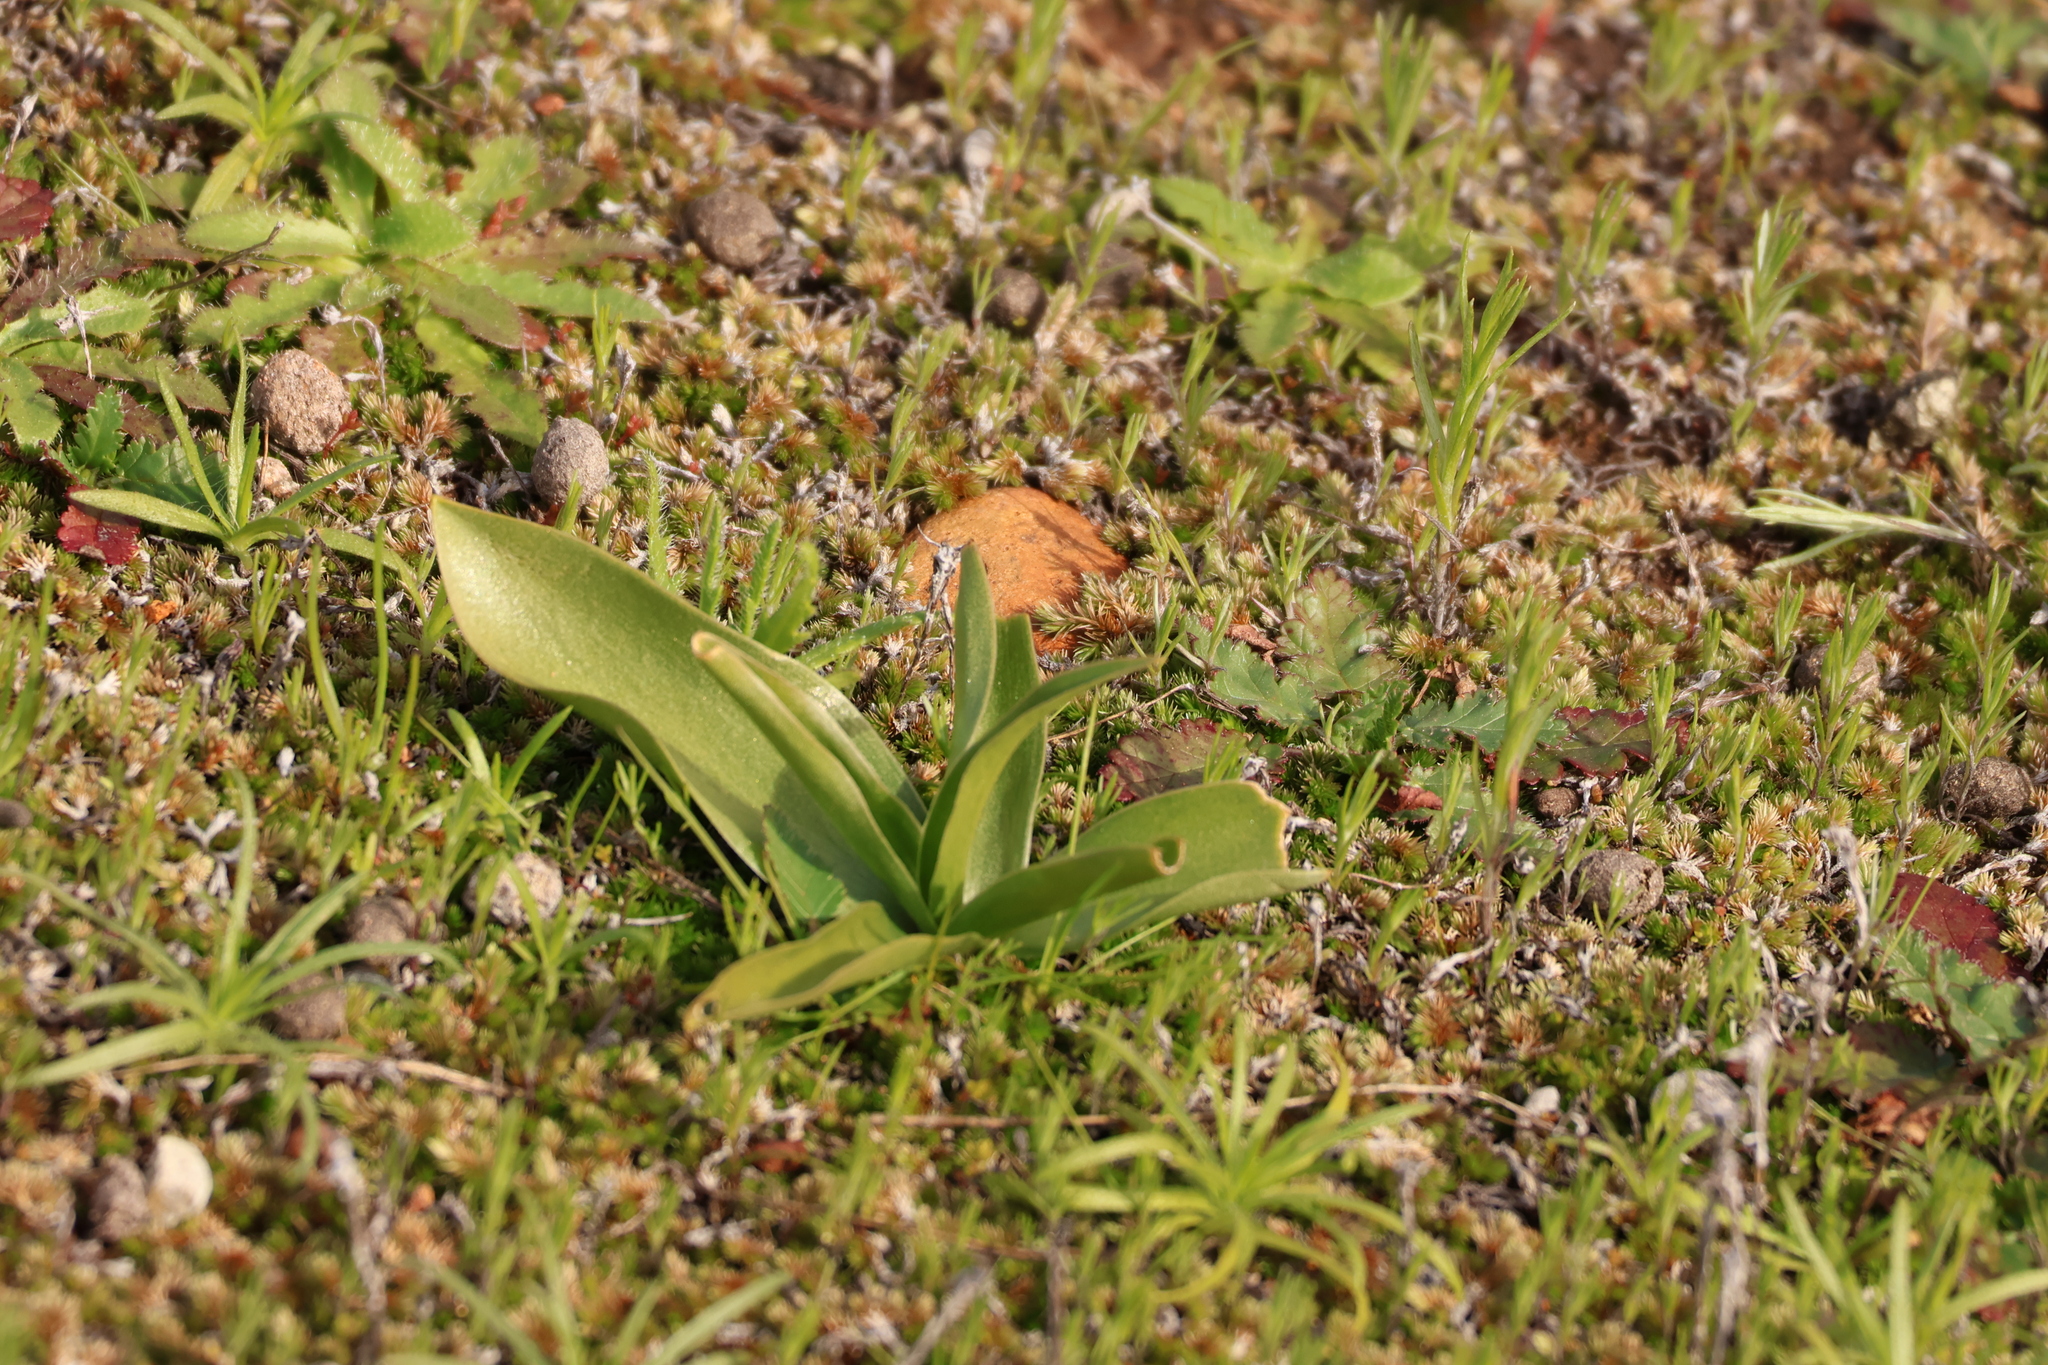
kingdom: Plantae
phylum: Tracheophyta
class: Liliopsida
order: Liliales
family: Liliaceae
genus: Fritillaria
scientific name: Fritillaria biflora
